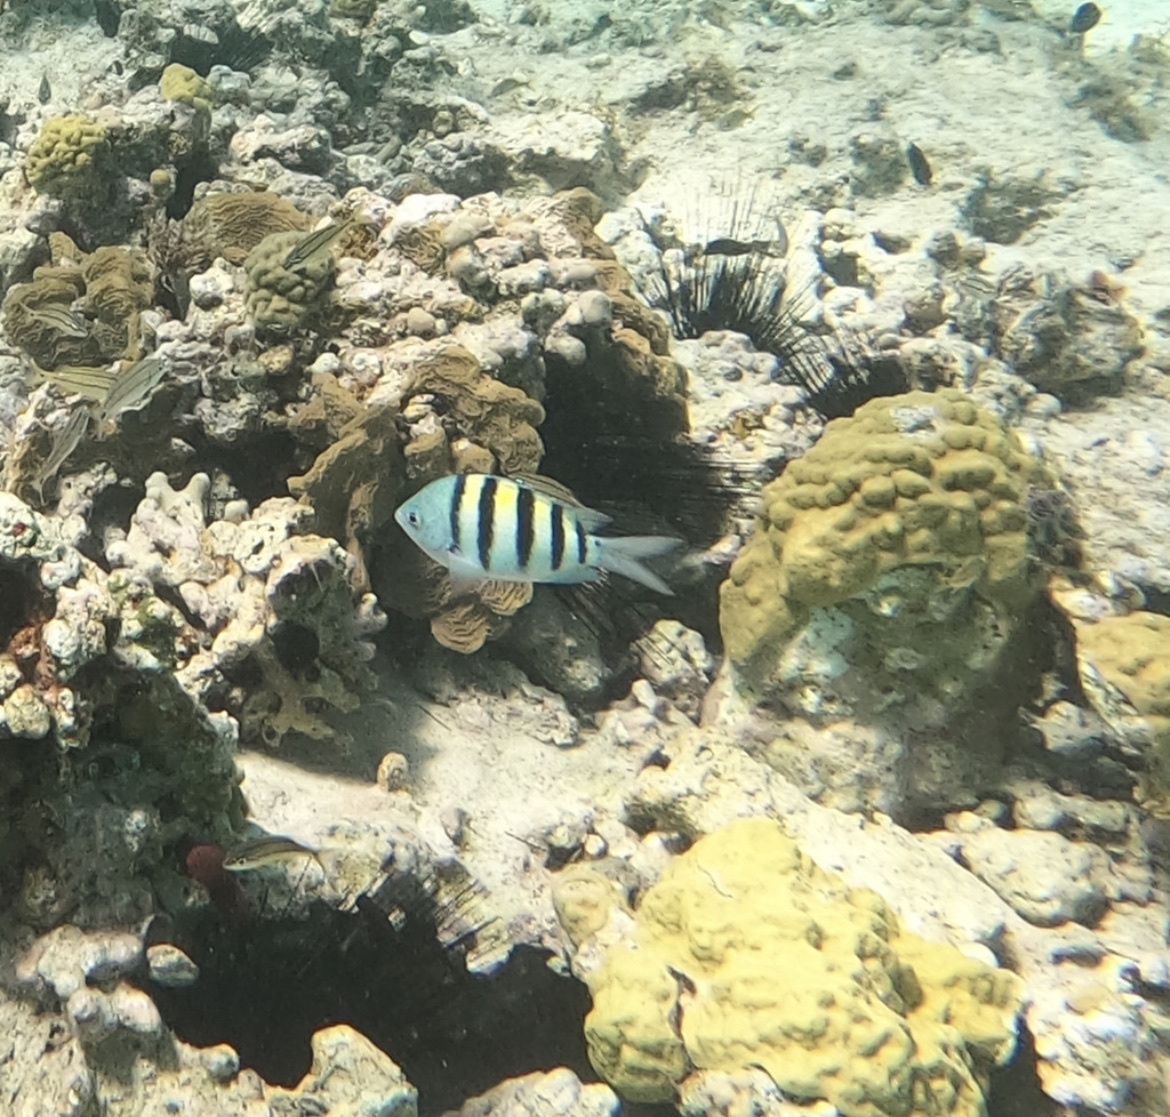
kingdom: Animalia
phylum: Chordata
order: Perciformes
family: Pomacentridae
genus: Abudefduf
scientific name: Abudefduf saxatilis
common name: Sergeant major
